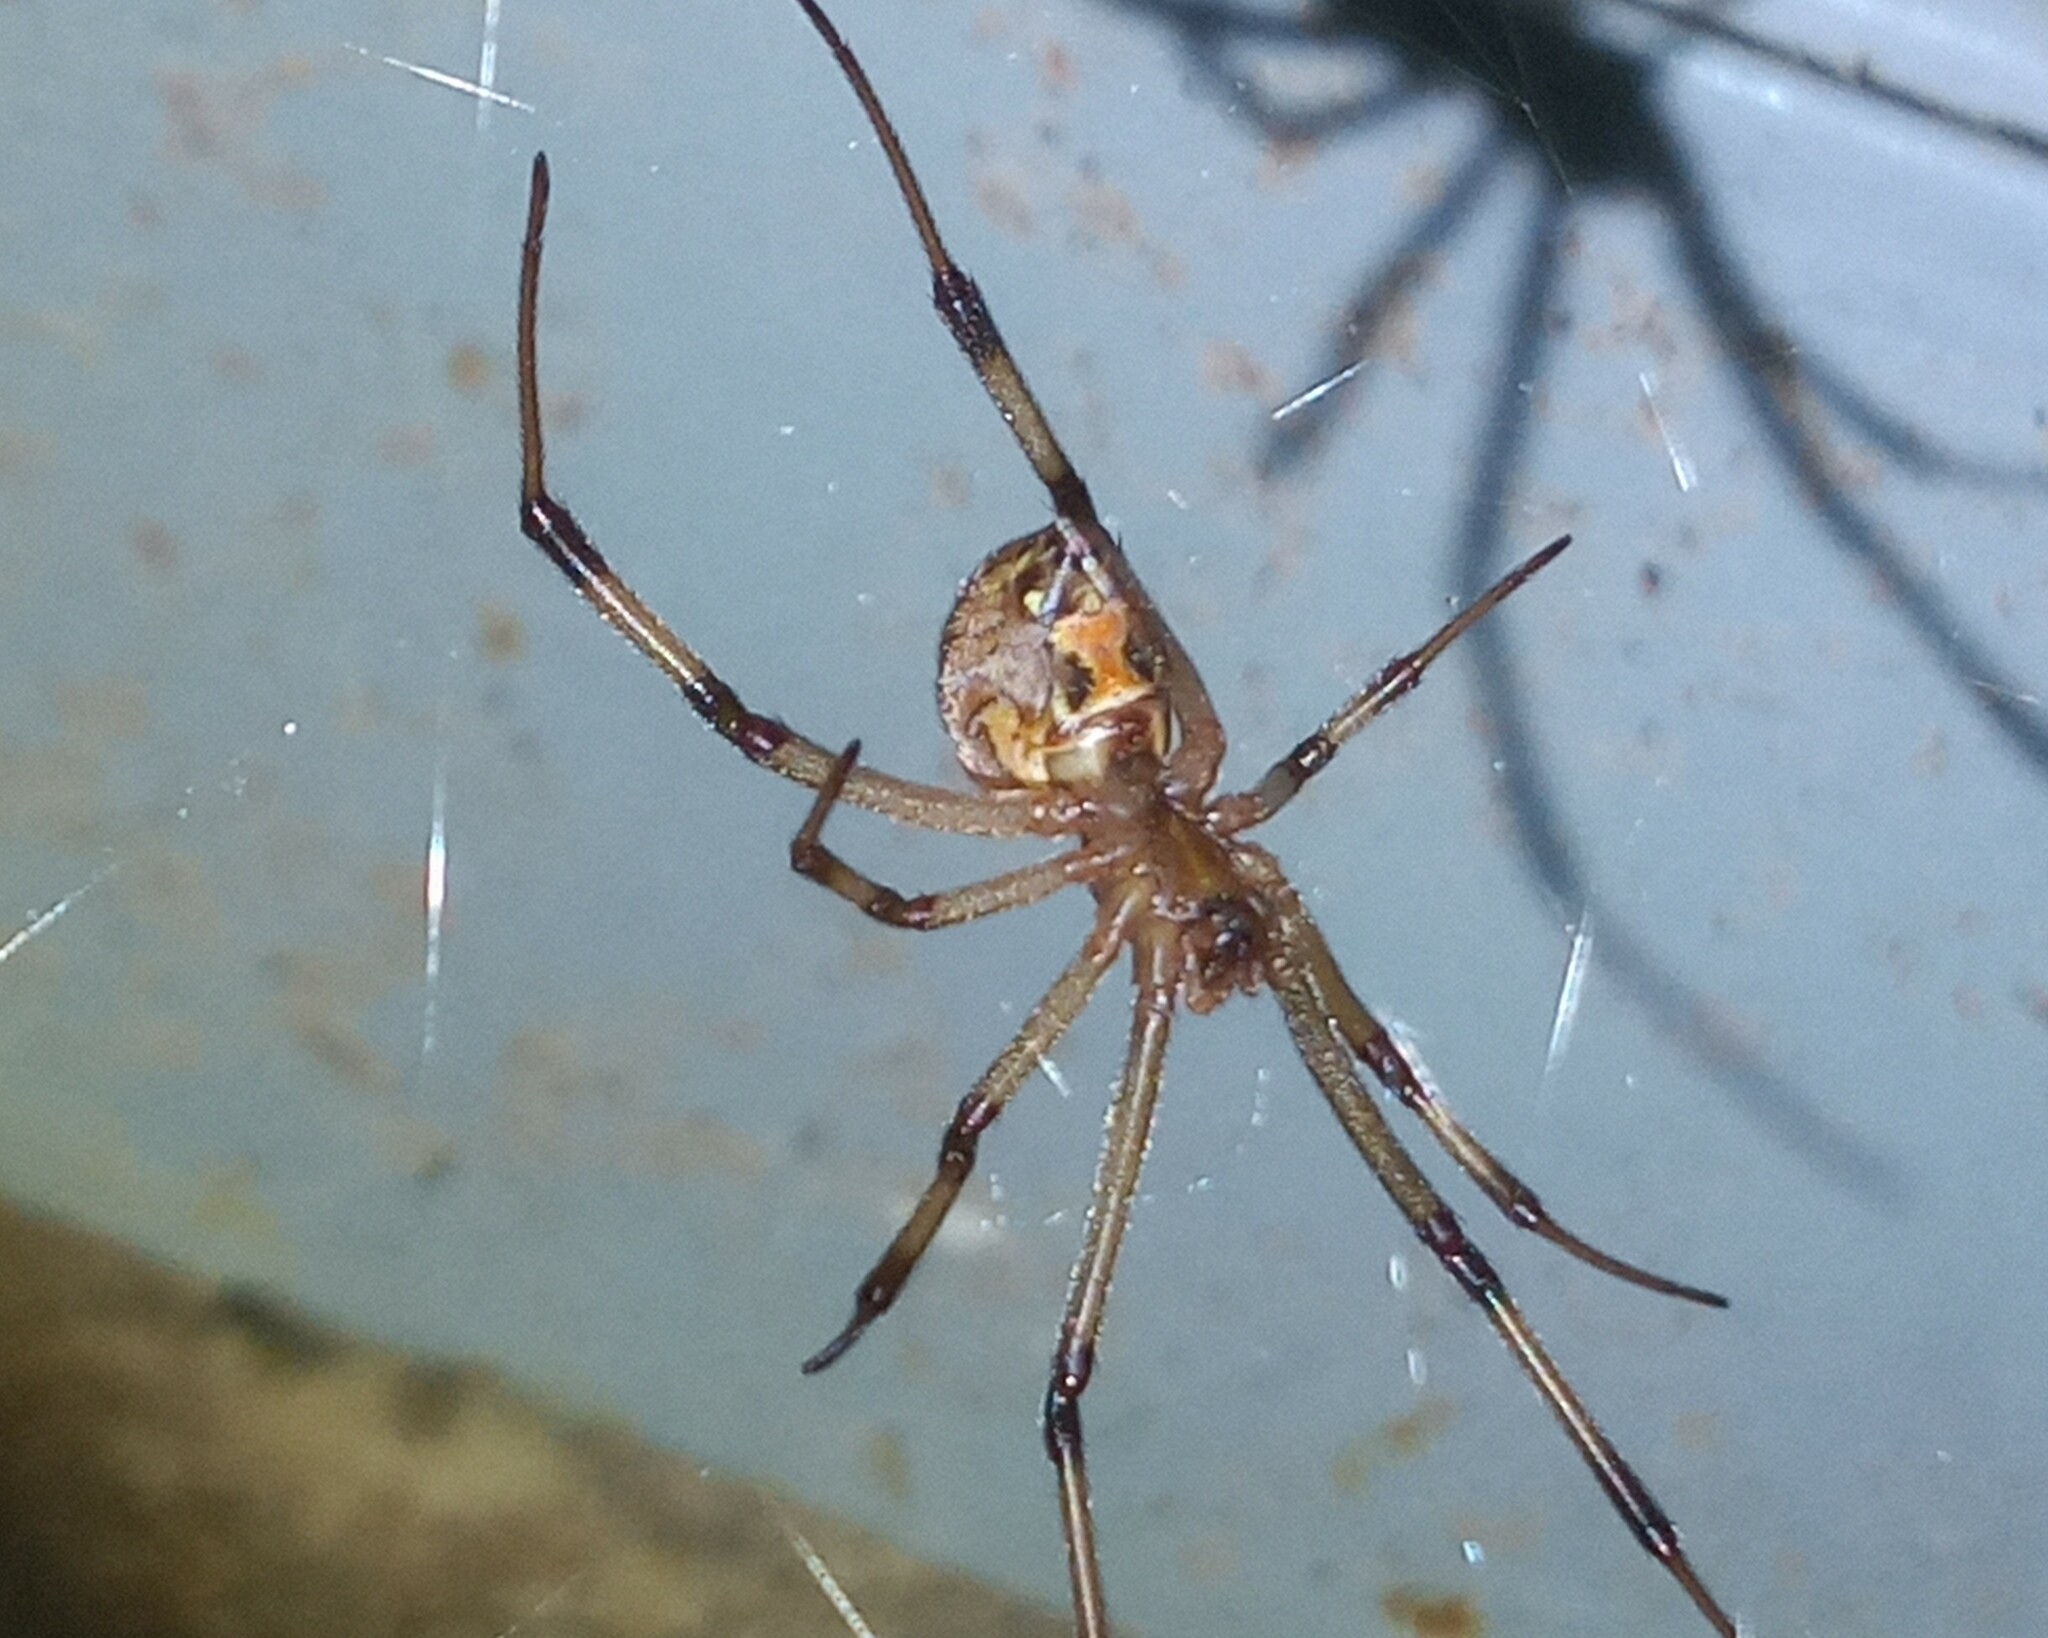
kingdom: Animalia
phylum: Arthropoda
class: Arachnida
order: Araneae
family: Theridiidae
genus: Latrodectus
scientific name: Latrodectus geometricus
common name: Brown widow spider
